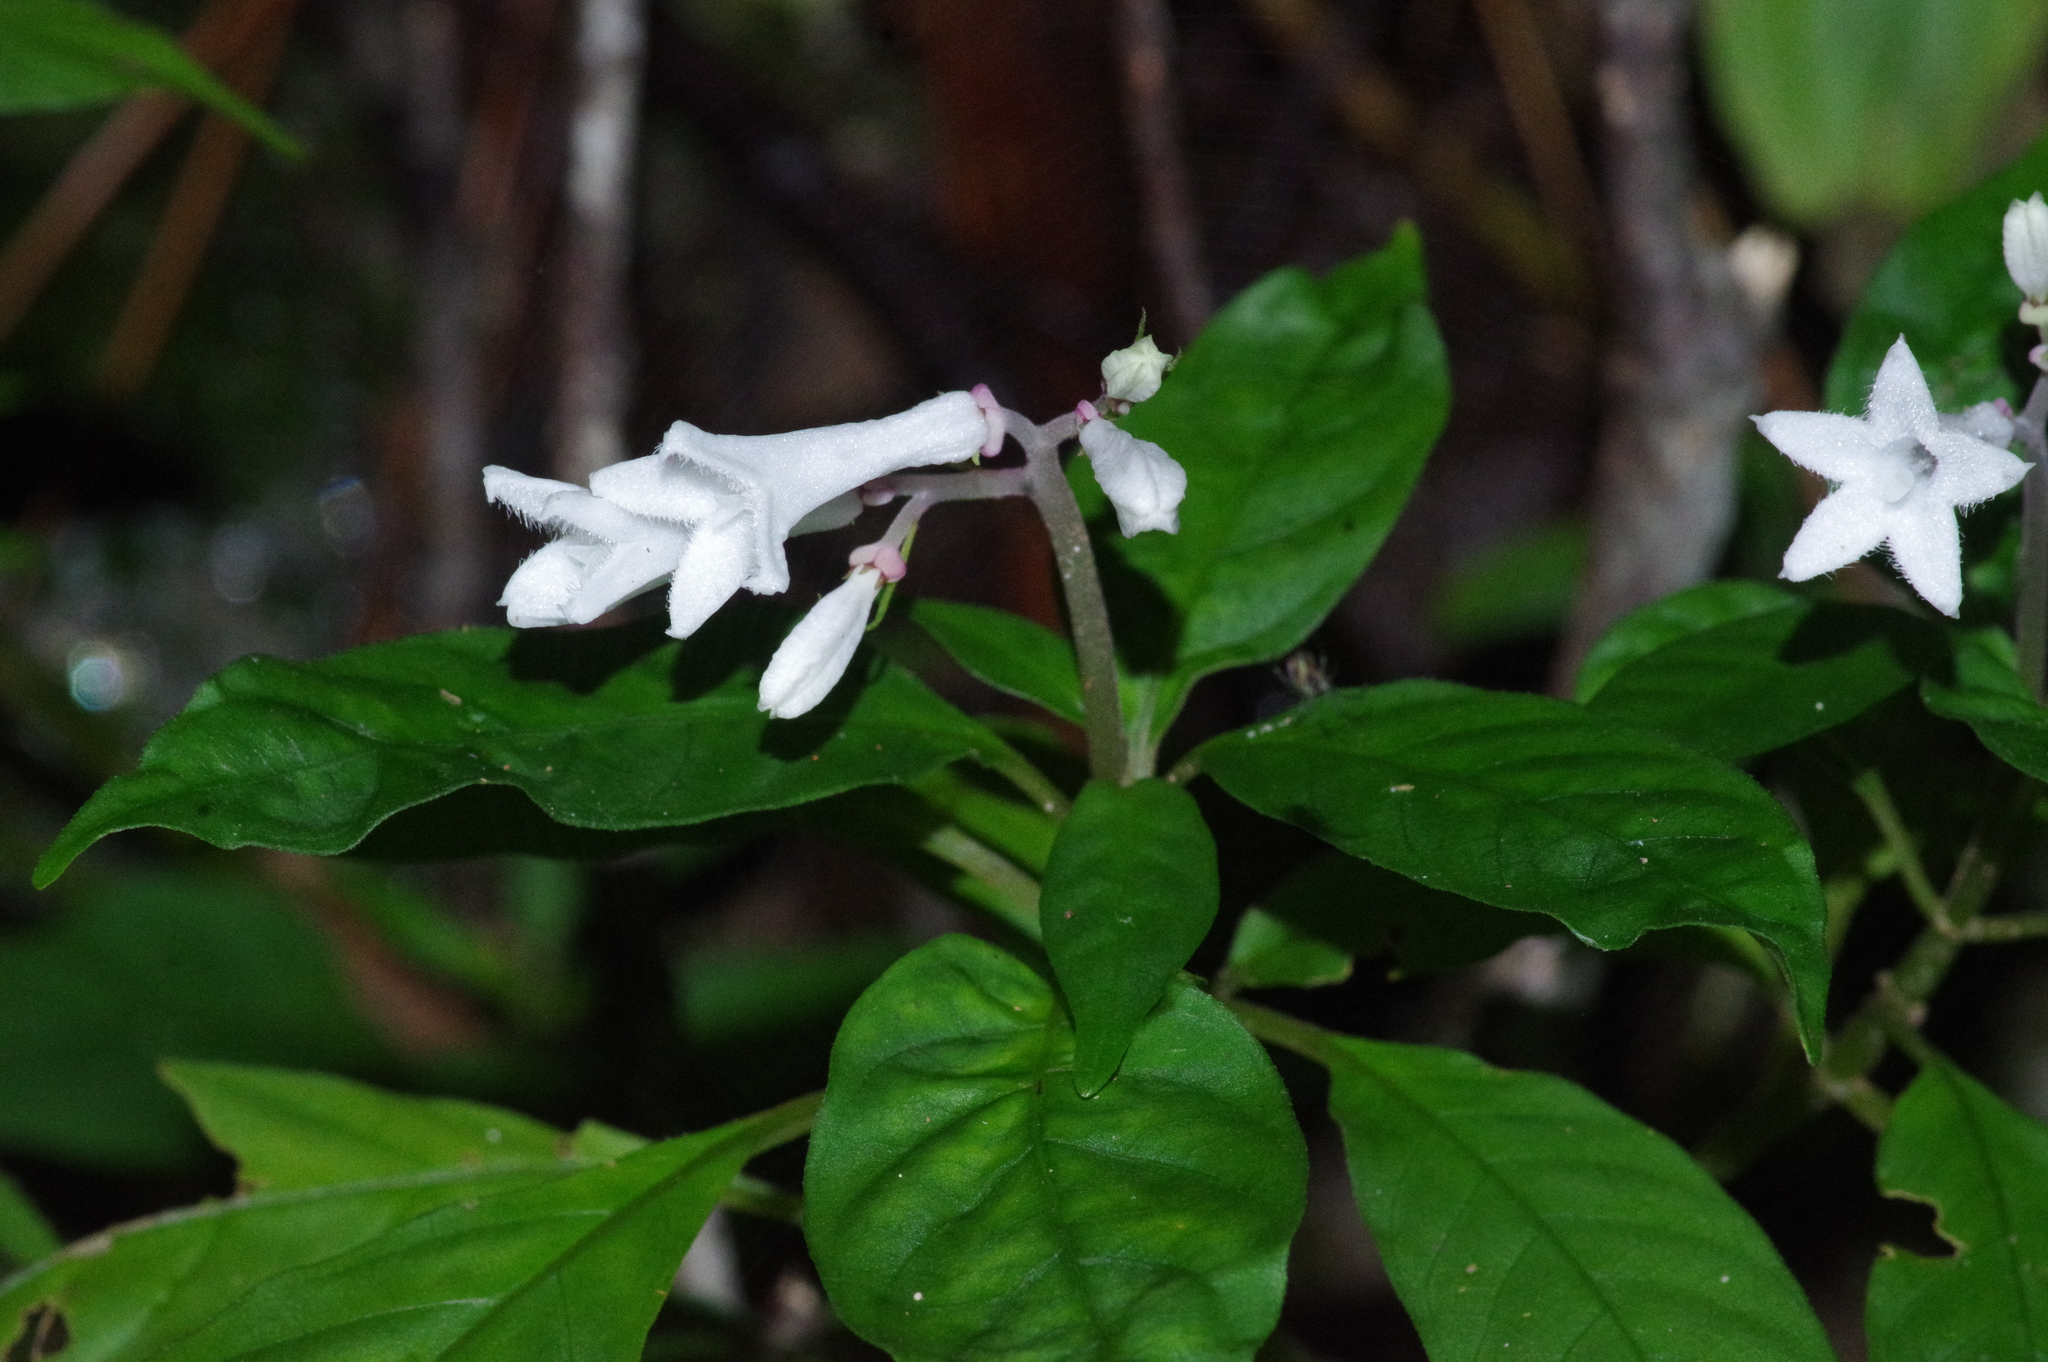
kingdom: Plantae
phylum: Tracheophyta
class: Magnoliopsida
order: Gentianales
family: Rubiaceae
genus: Ophiorrhiza
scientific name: Ophiorrhiza japonica
